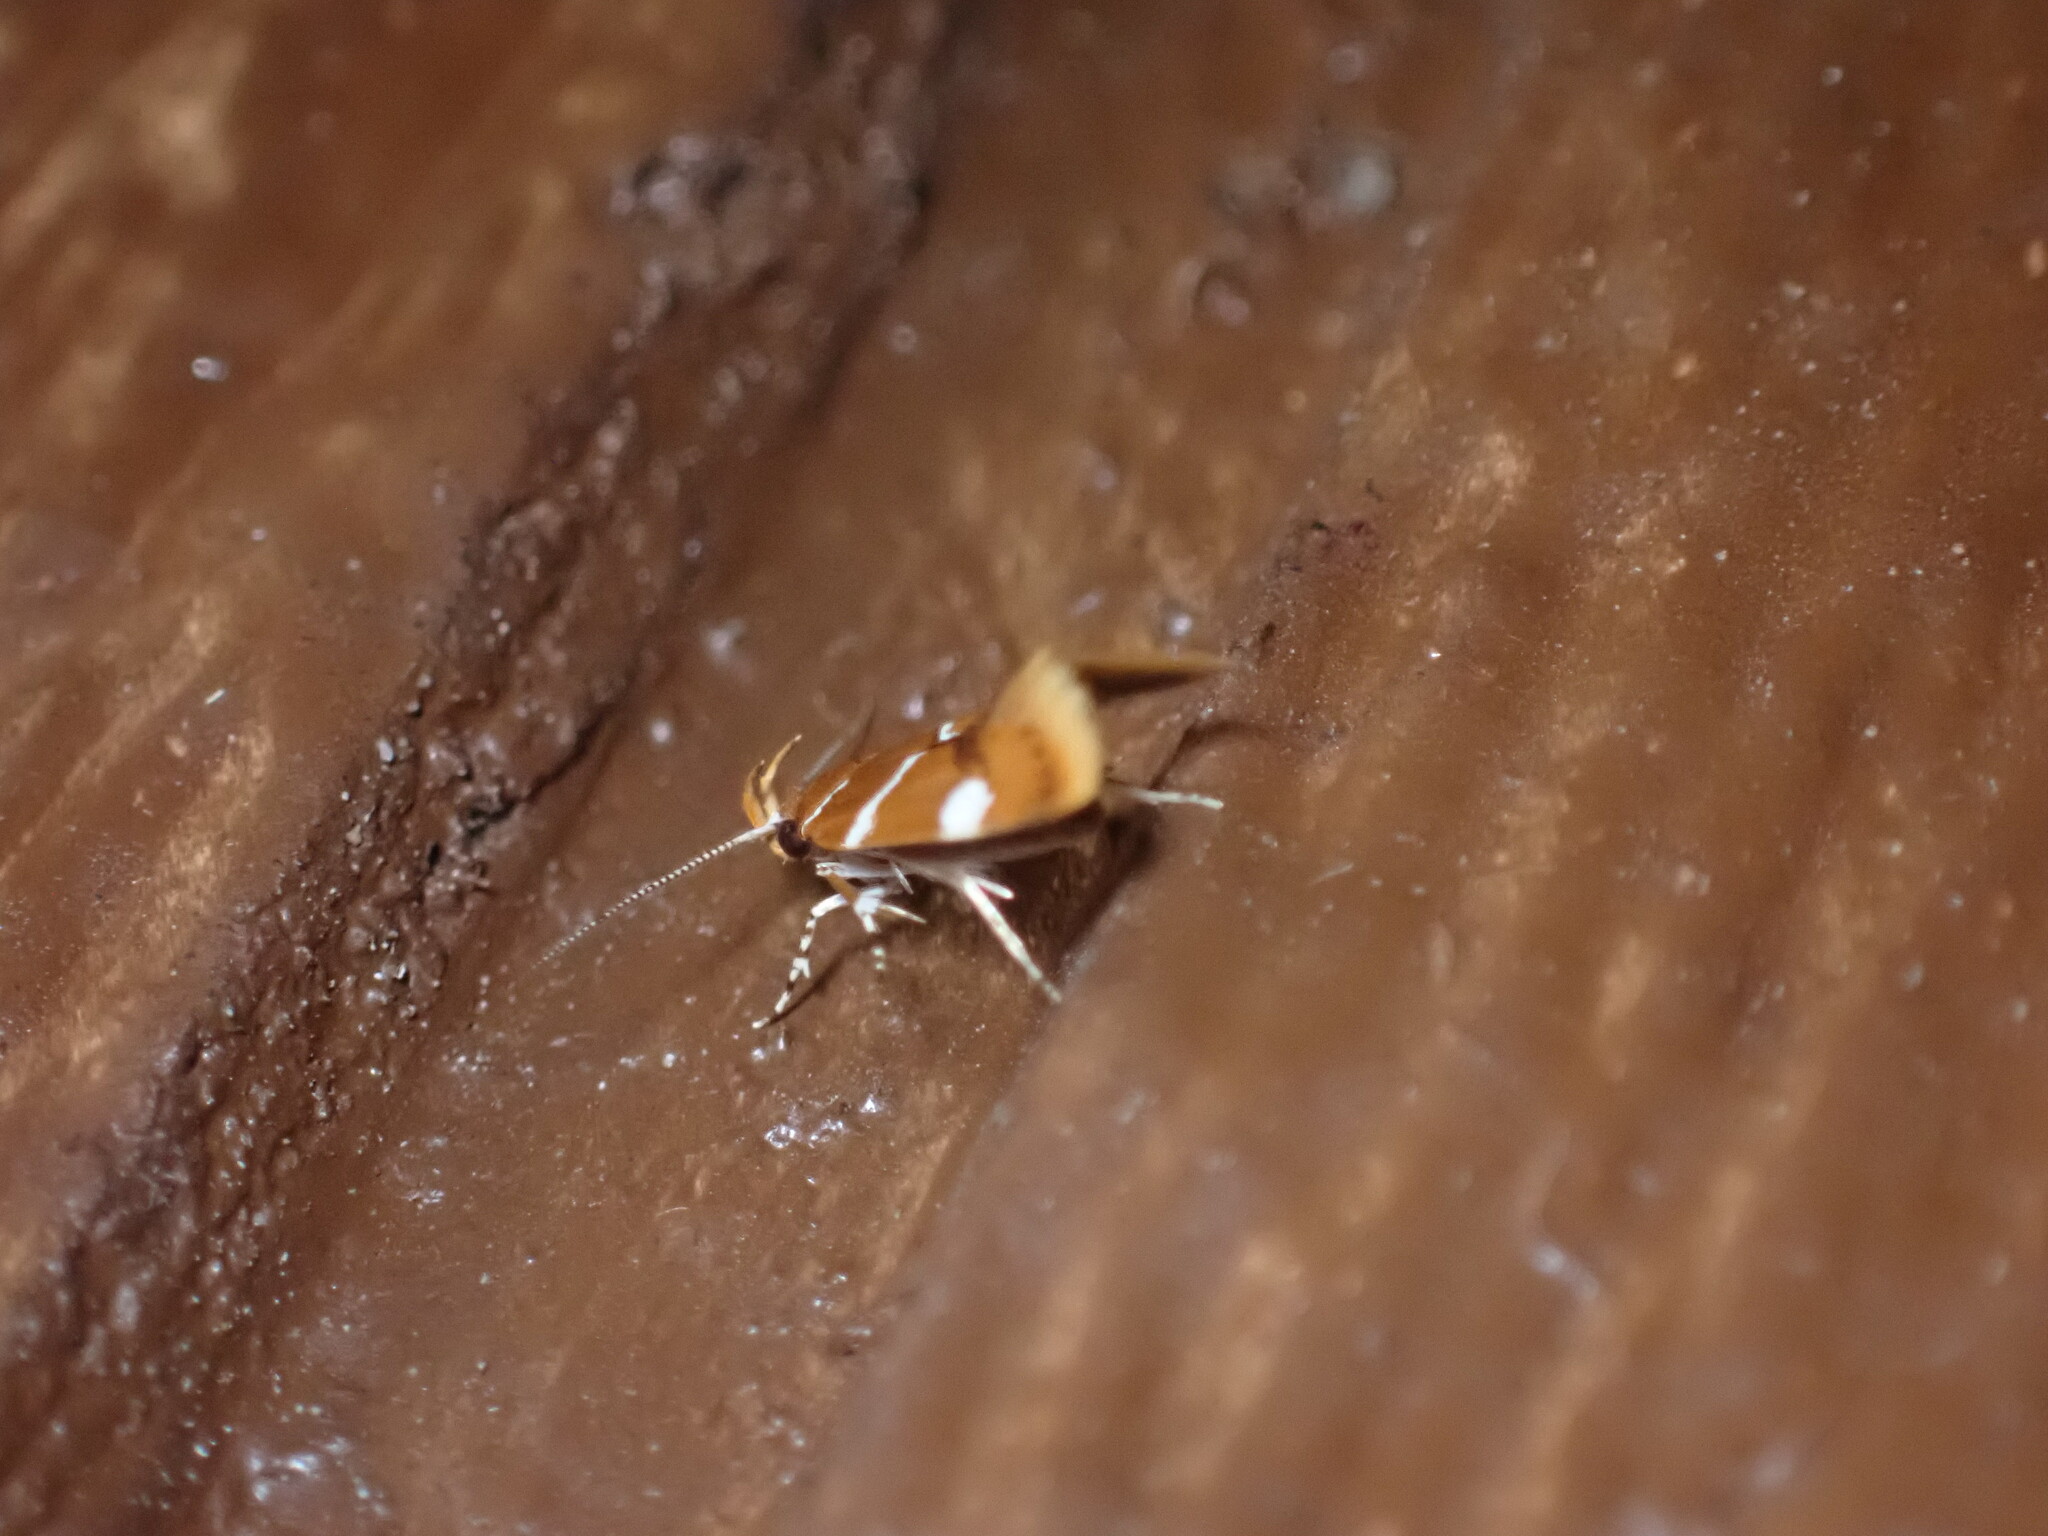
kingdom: Animalia
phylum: Arthropoda
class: Insecta
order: Lepidoptera
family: Oecophoridae
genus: Promalactis
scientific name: Promalactis suzukiella
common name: Moth
